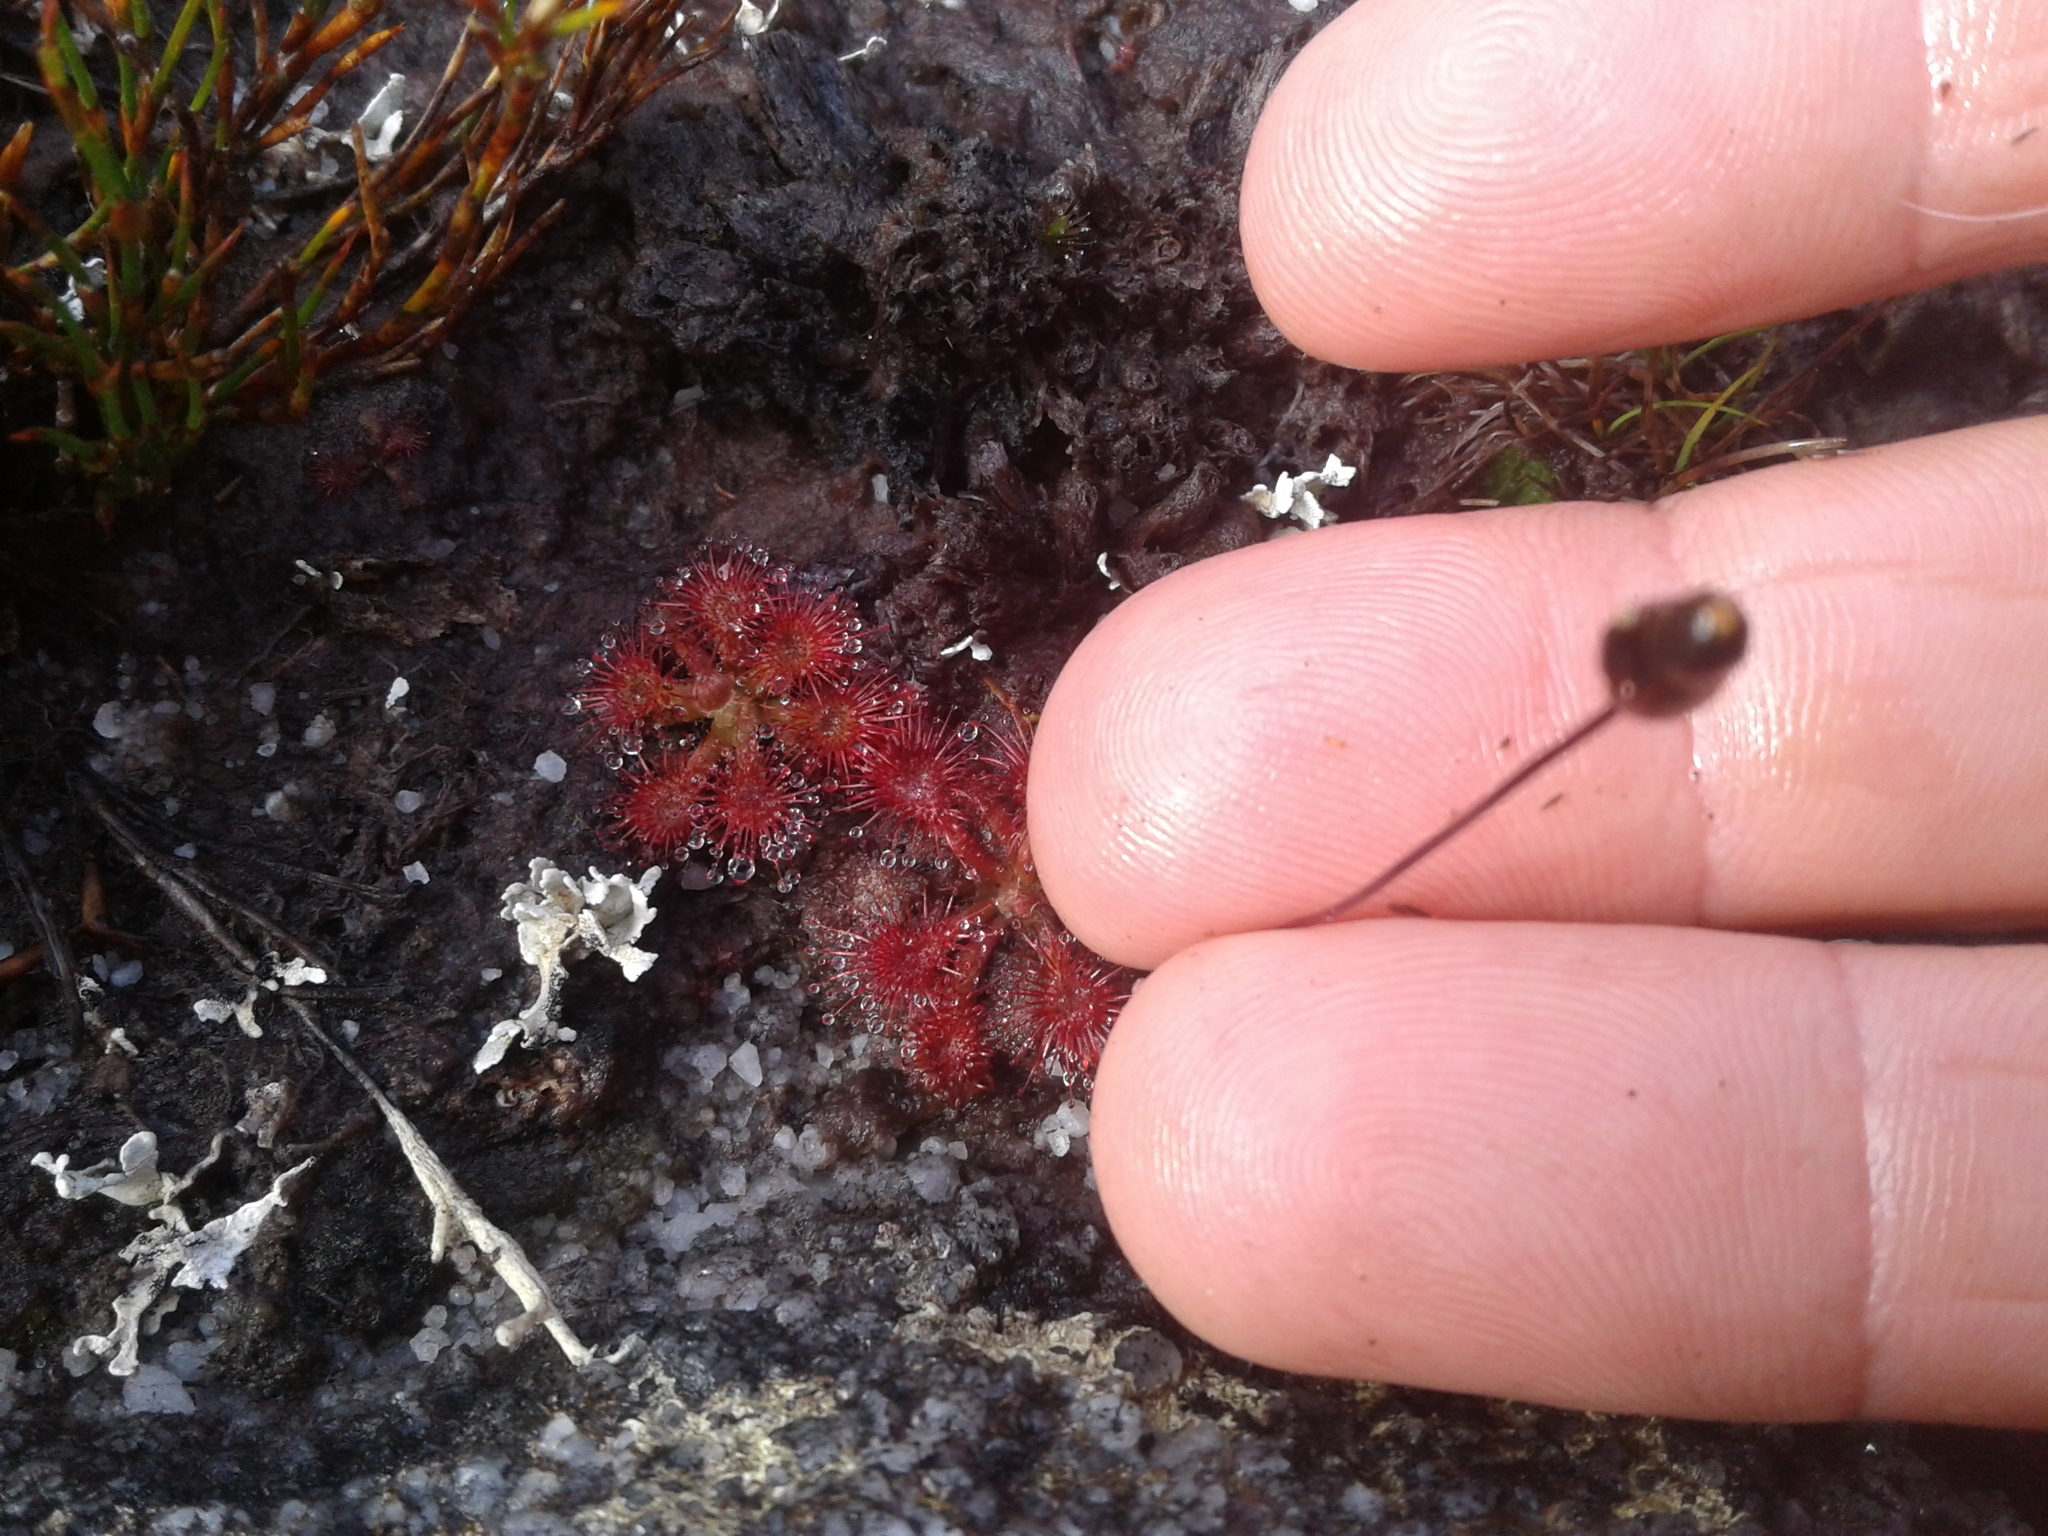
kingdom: Plantae
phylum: Tracheophyta
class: Magnoliopsida
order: Caryophyllales
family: Droseraceae
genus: Drosera
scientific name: Drosera spatulata
